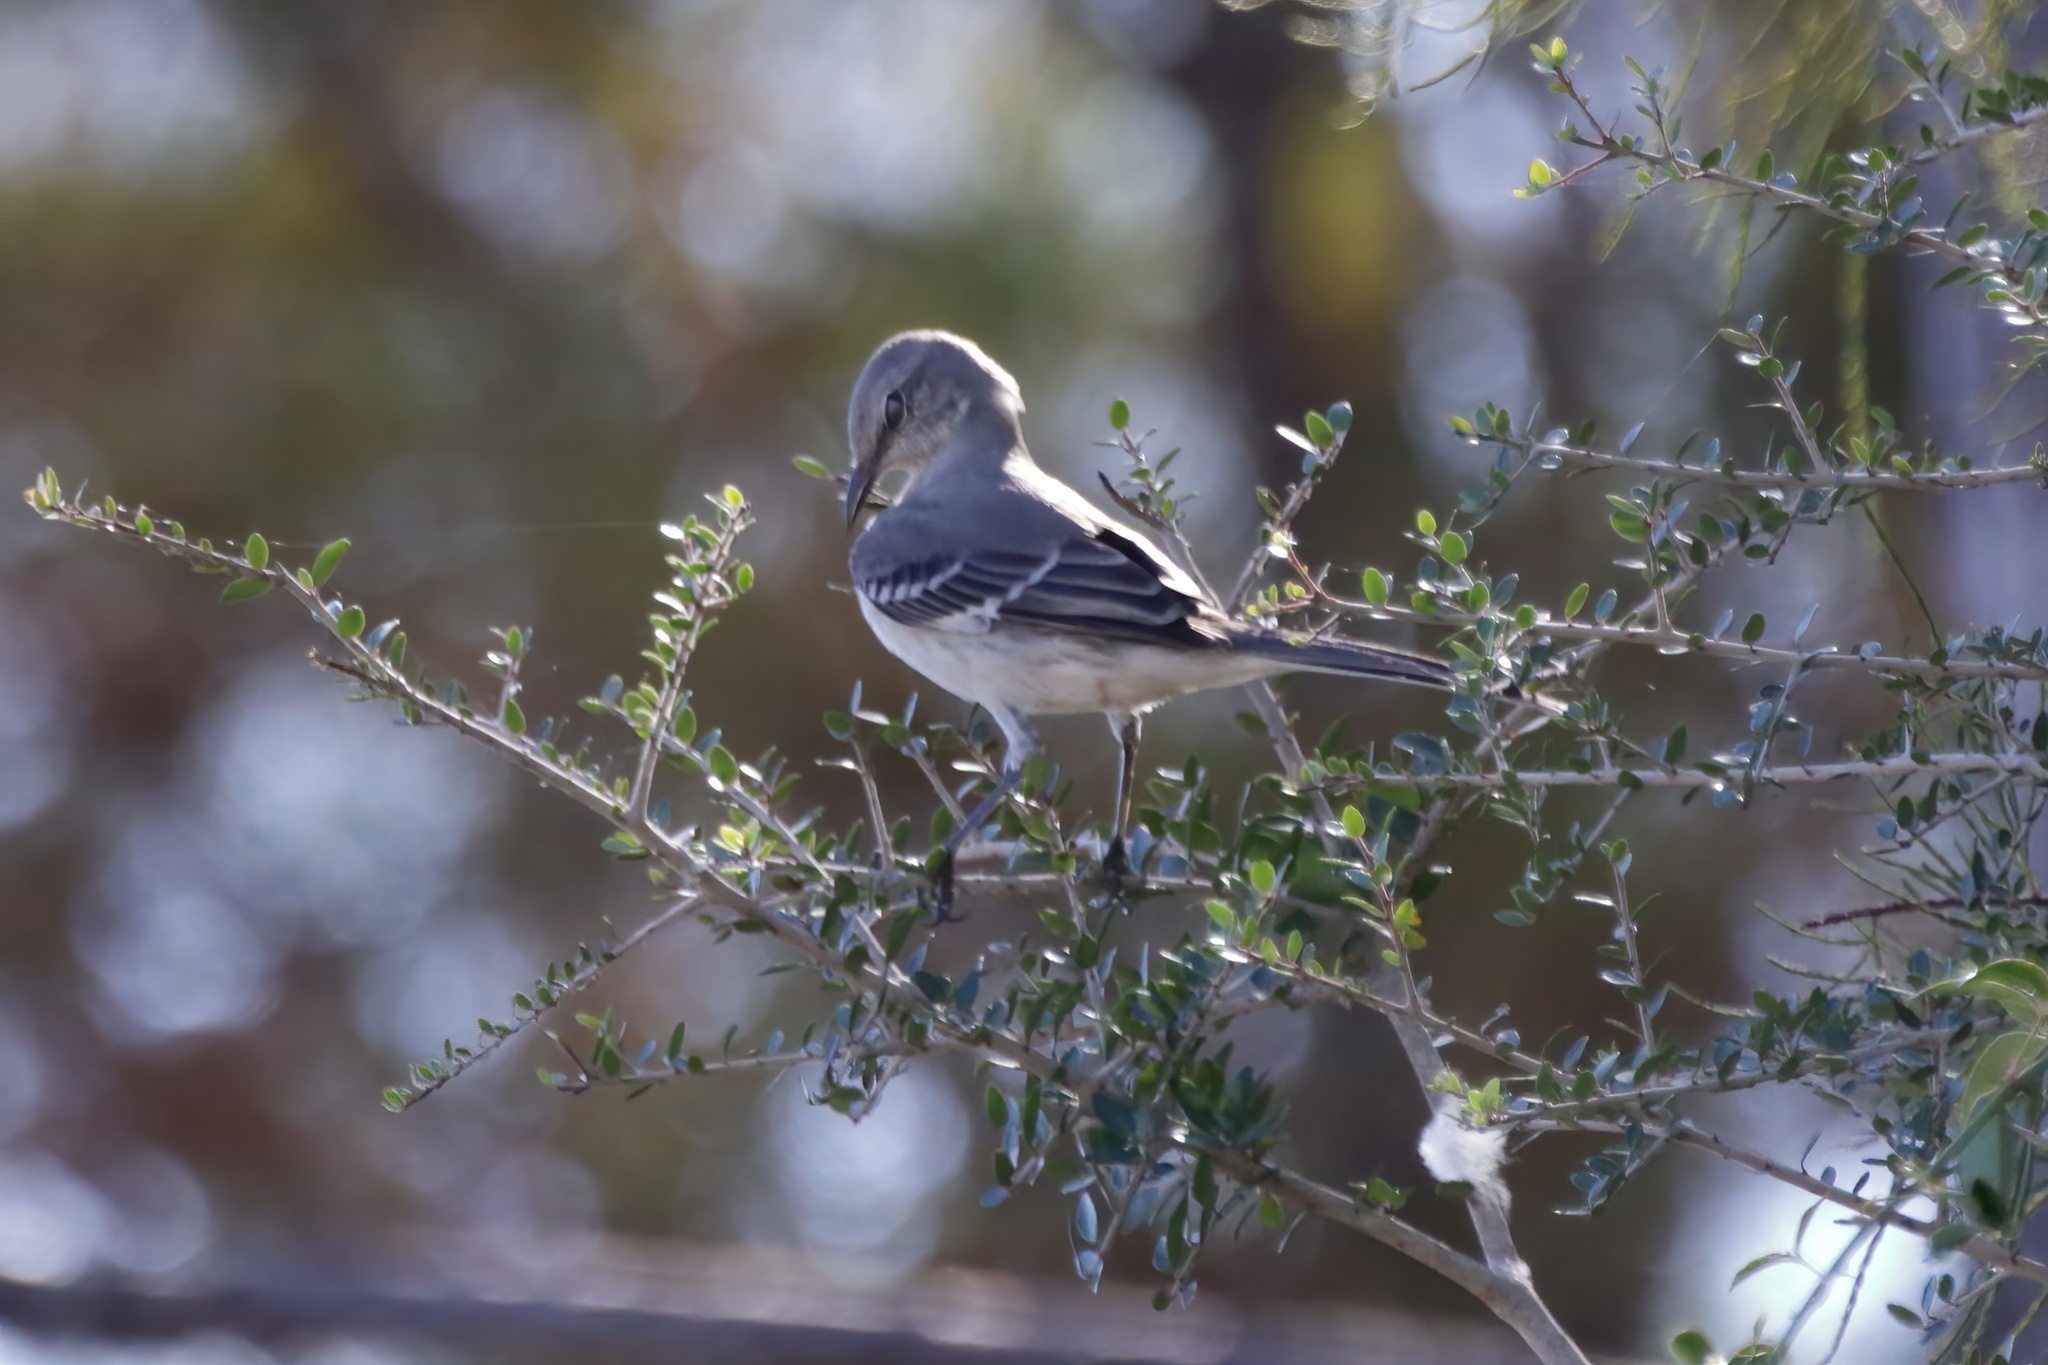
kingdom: Animalia
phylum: Chordata
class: Aves
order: Passeriformes
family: Mimidae
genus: Mimus
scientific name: Mimus polyglottos
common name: Northern mockingbird
